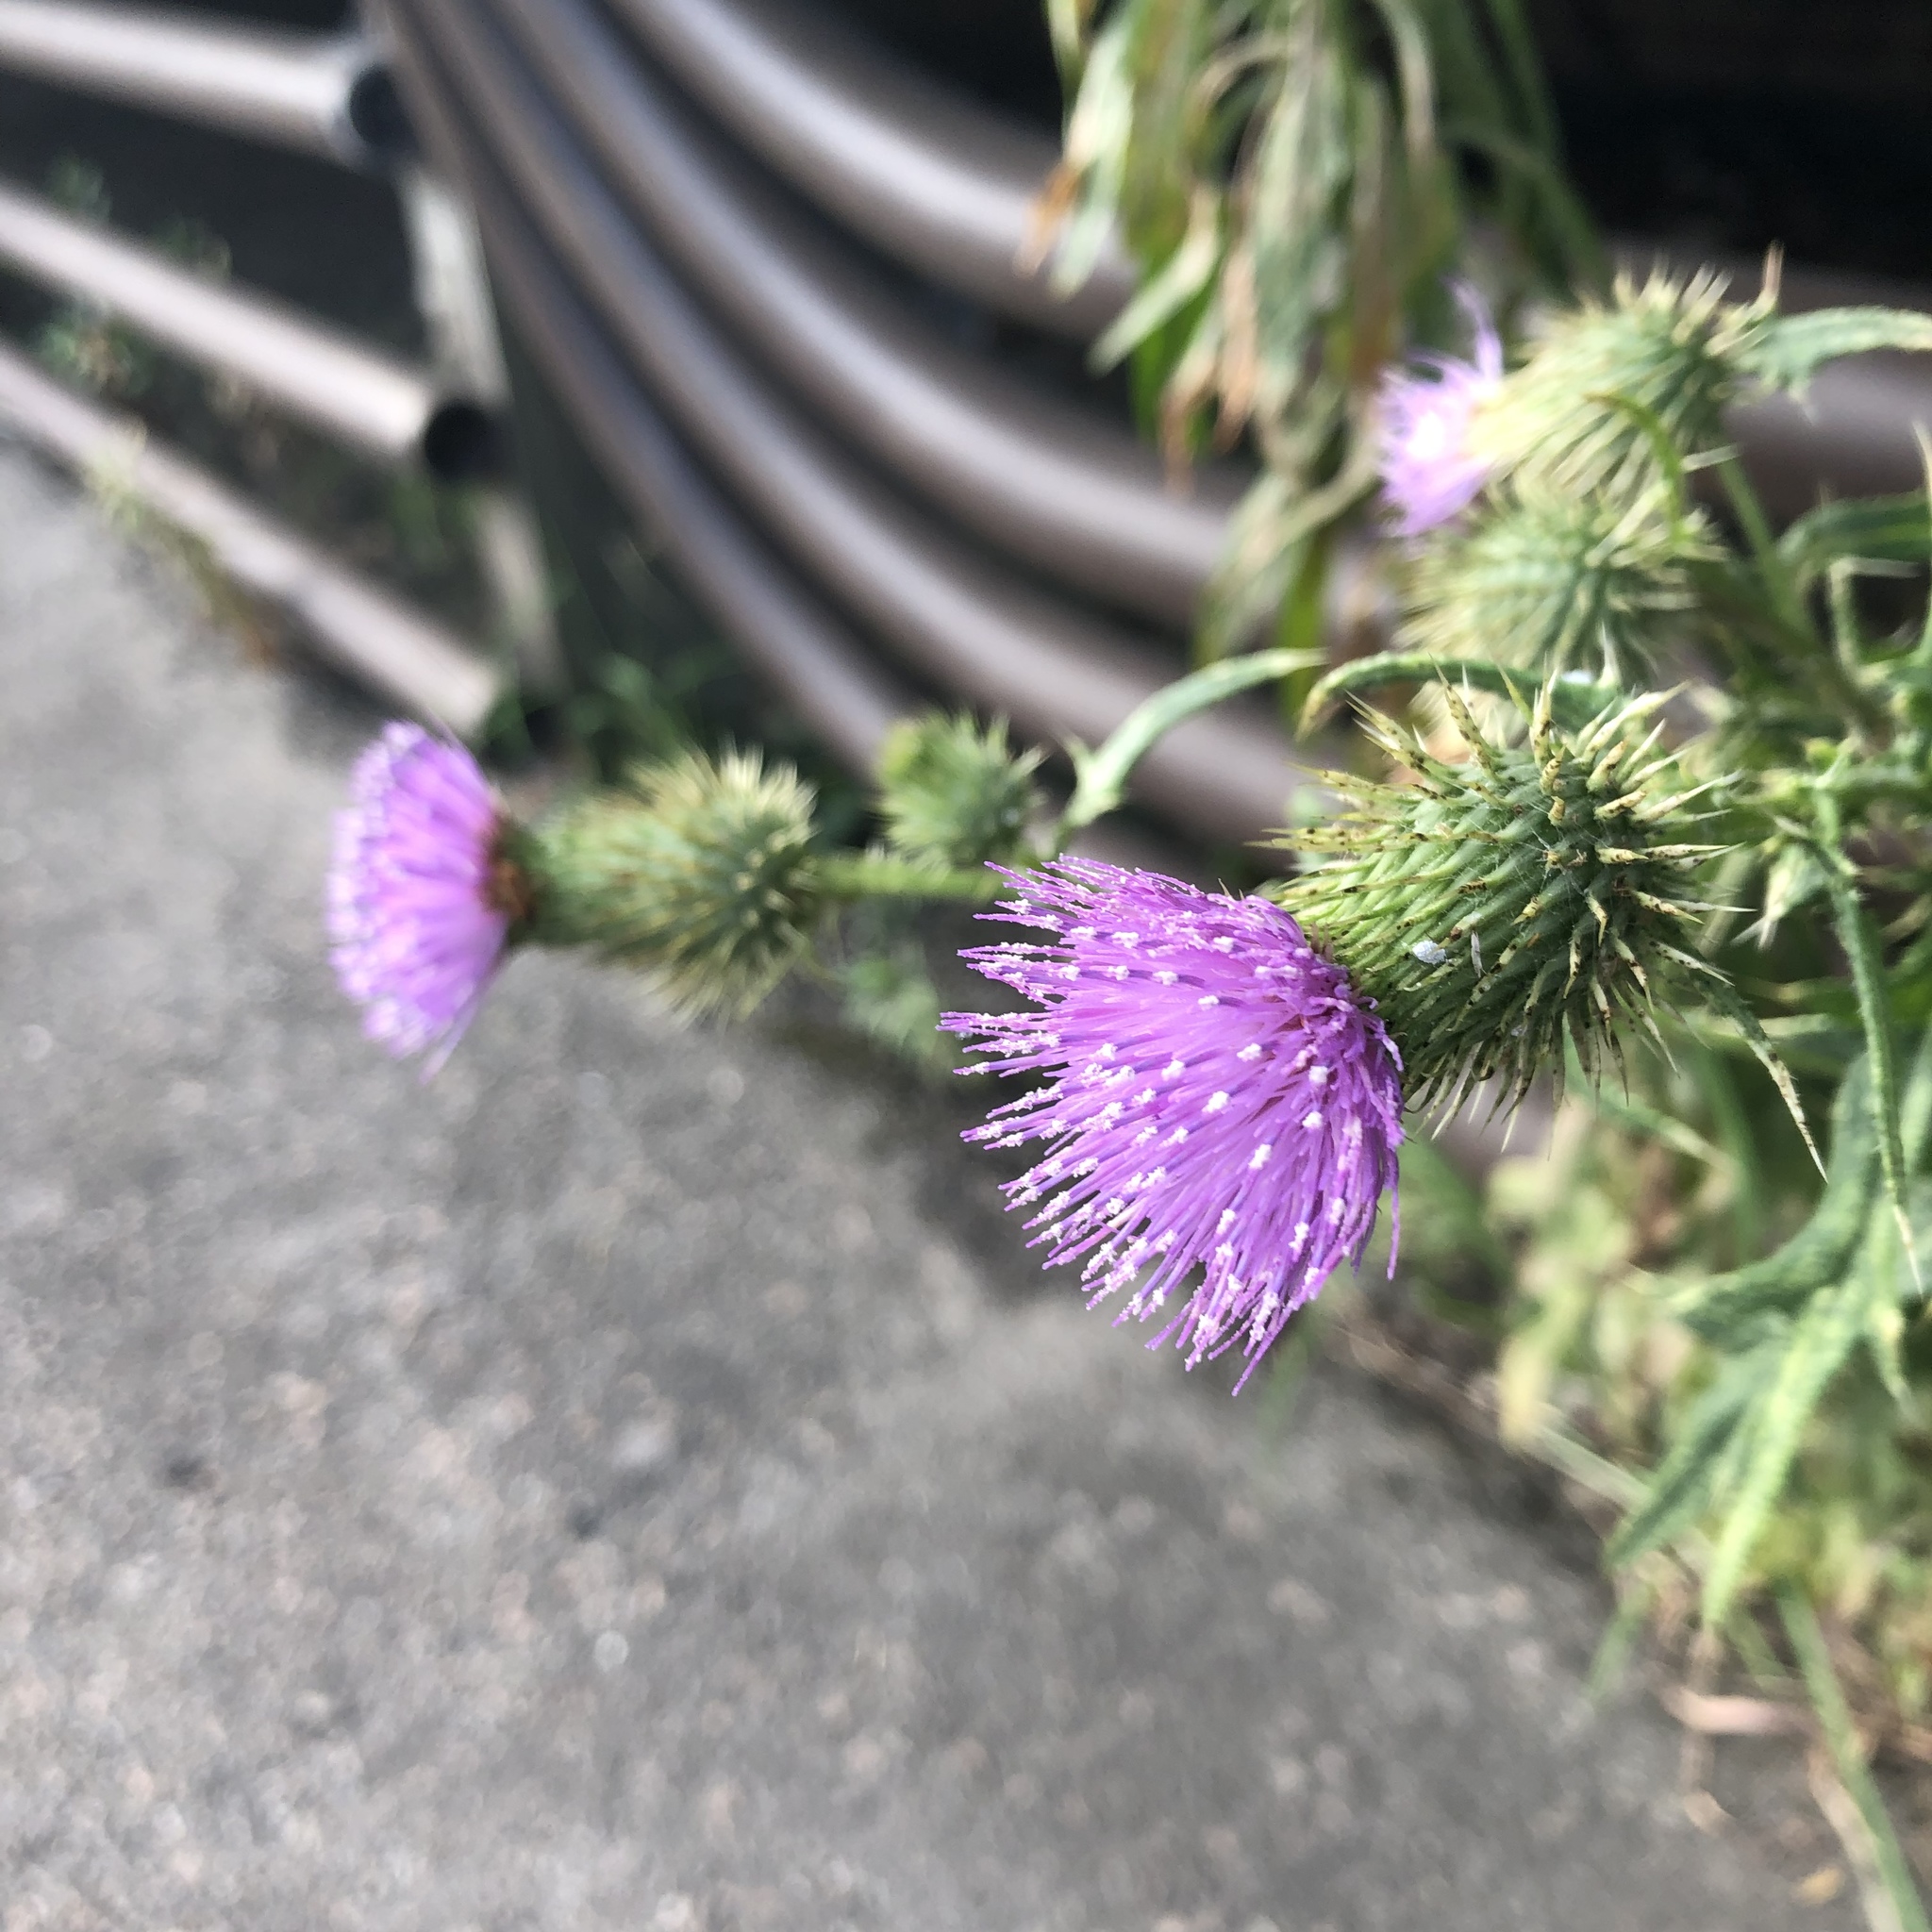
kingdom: Plantae
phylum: Tracheophyta
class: Magnoliopsida
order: Asterales
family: Asteraceae
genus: Cirsium
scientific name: Cirsium vulgare
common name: Bull thistle
